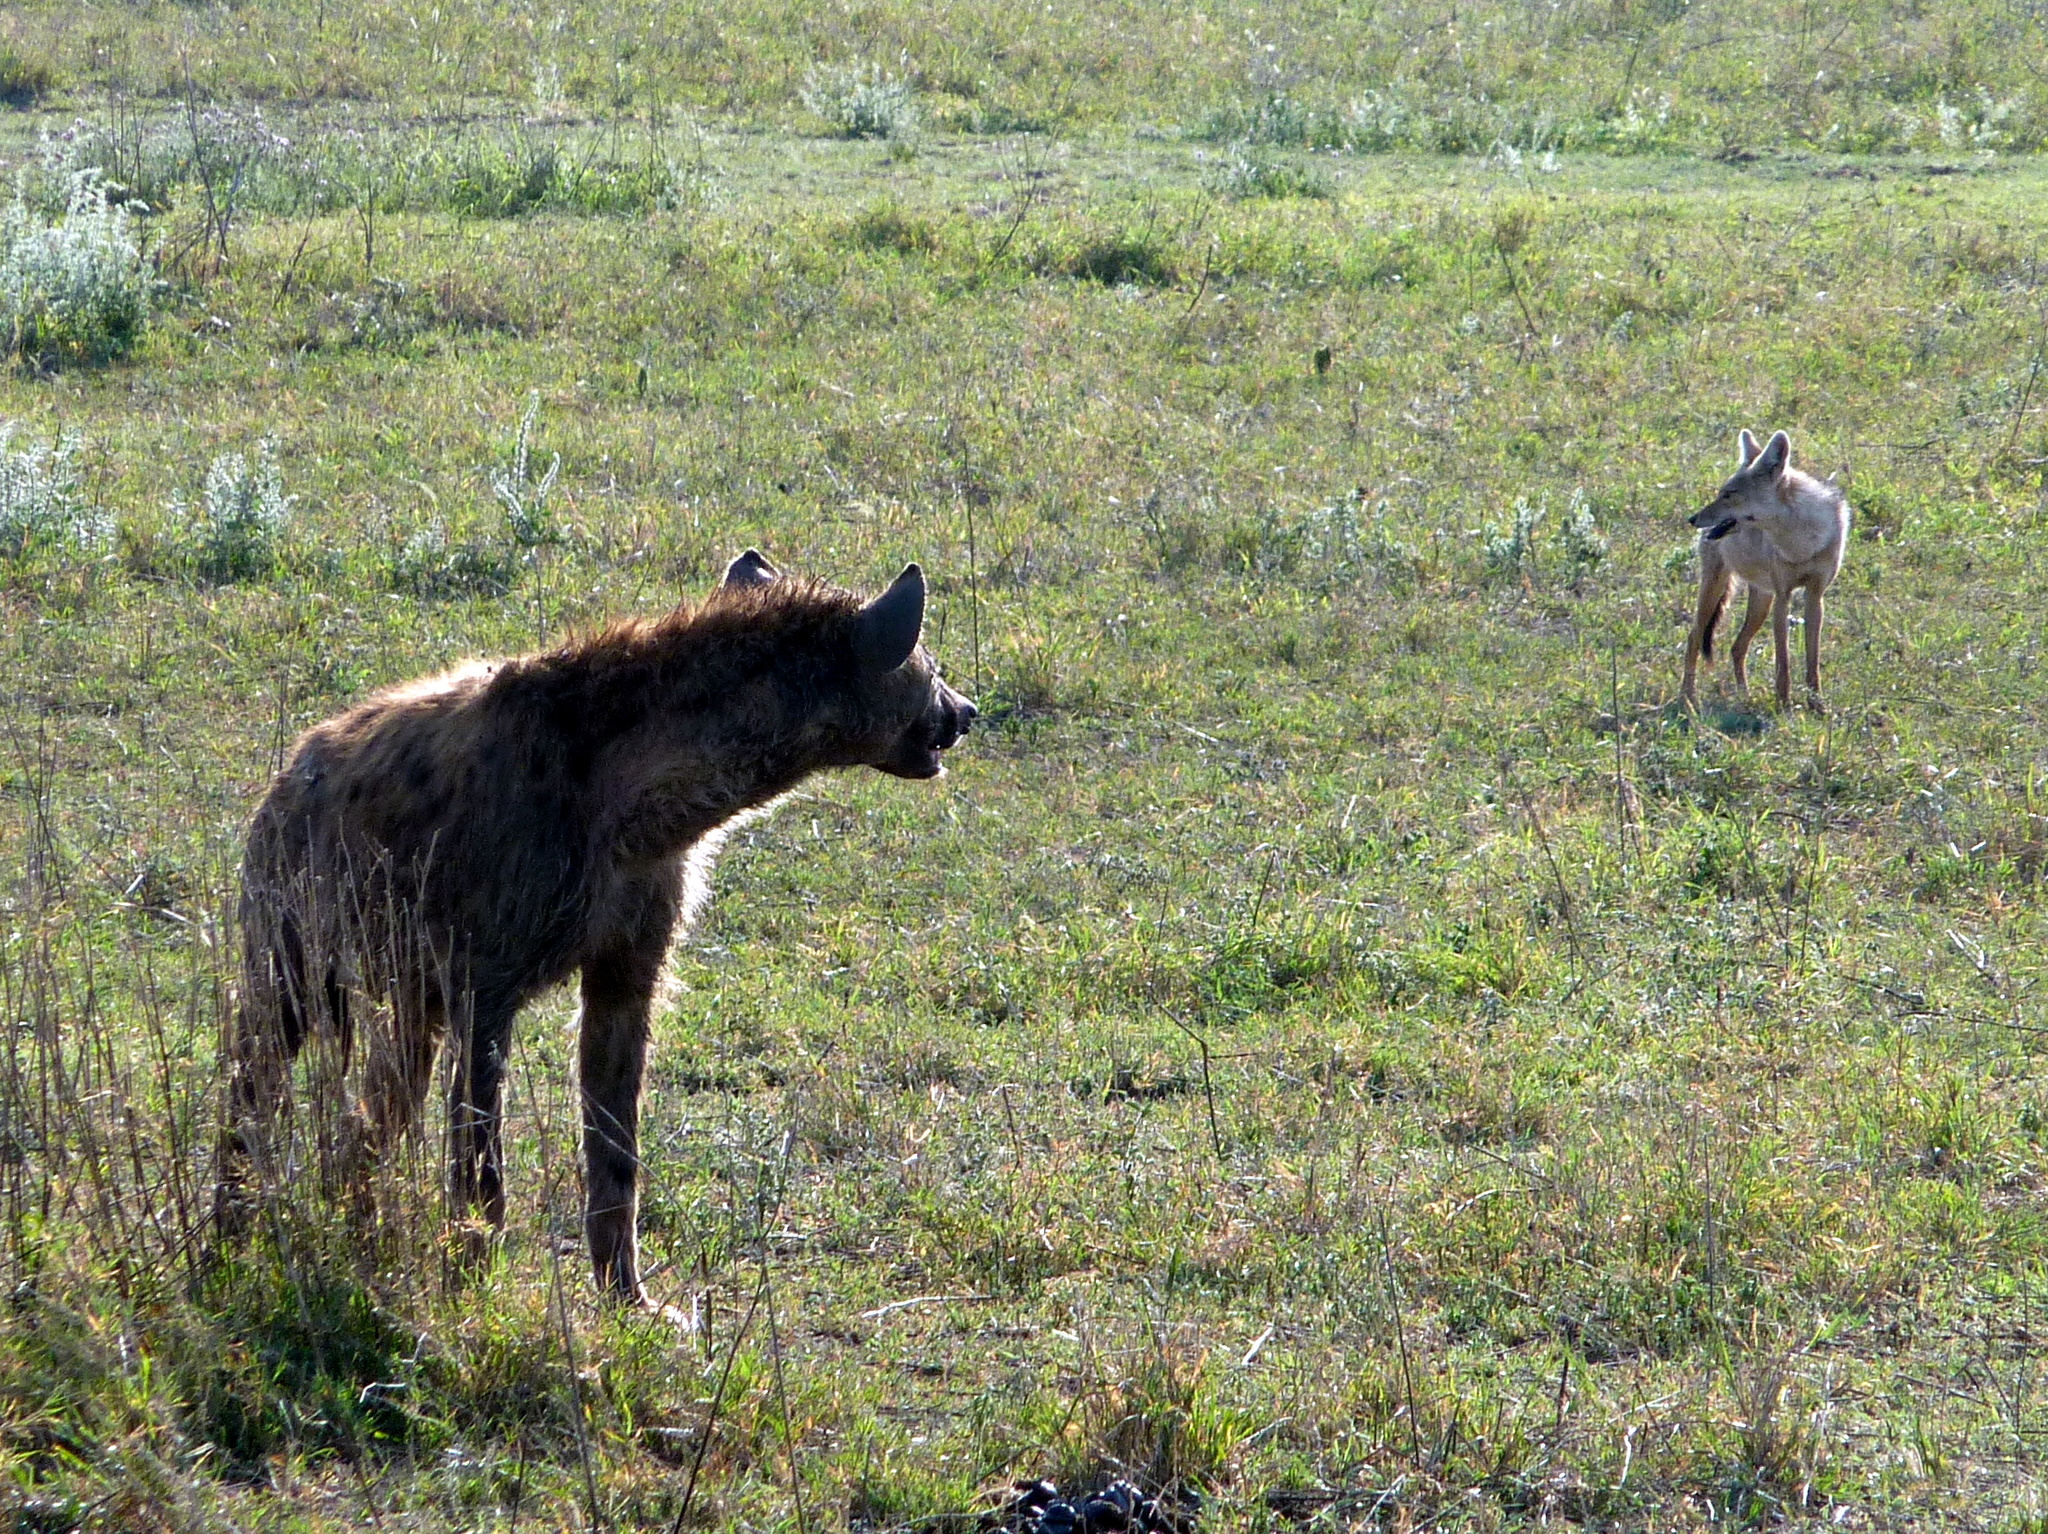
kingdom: Animalia
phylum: Chordata
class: Mammalia
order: Carnivora
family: Hyaenidae
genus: Crocuta
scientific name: Crocuta crocuta
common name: Spotted hyaena
